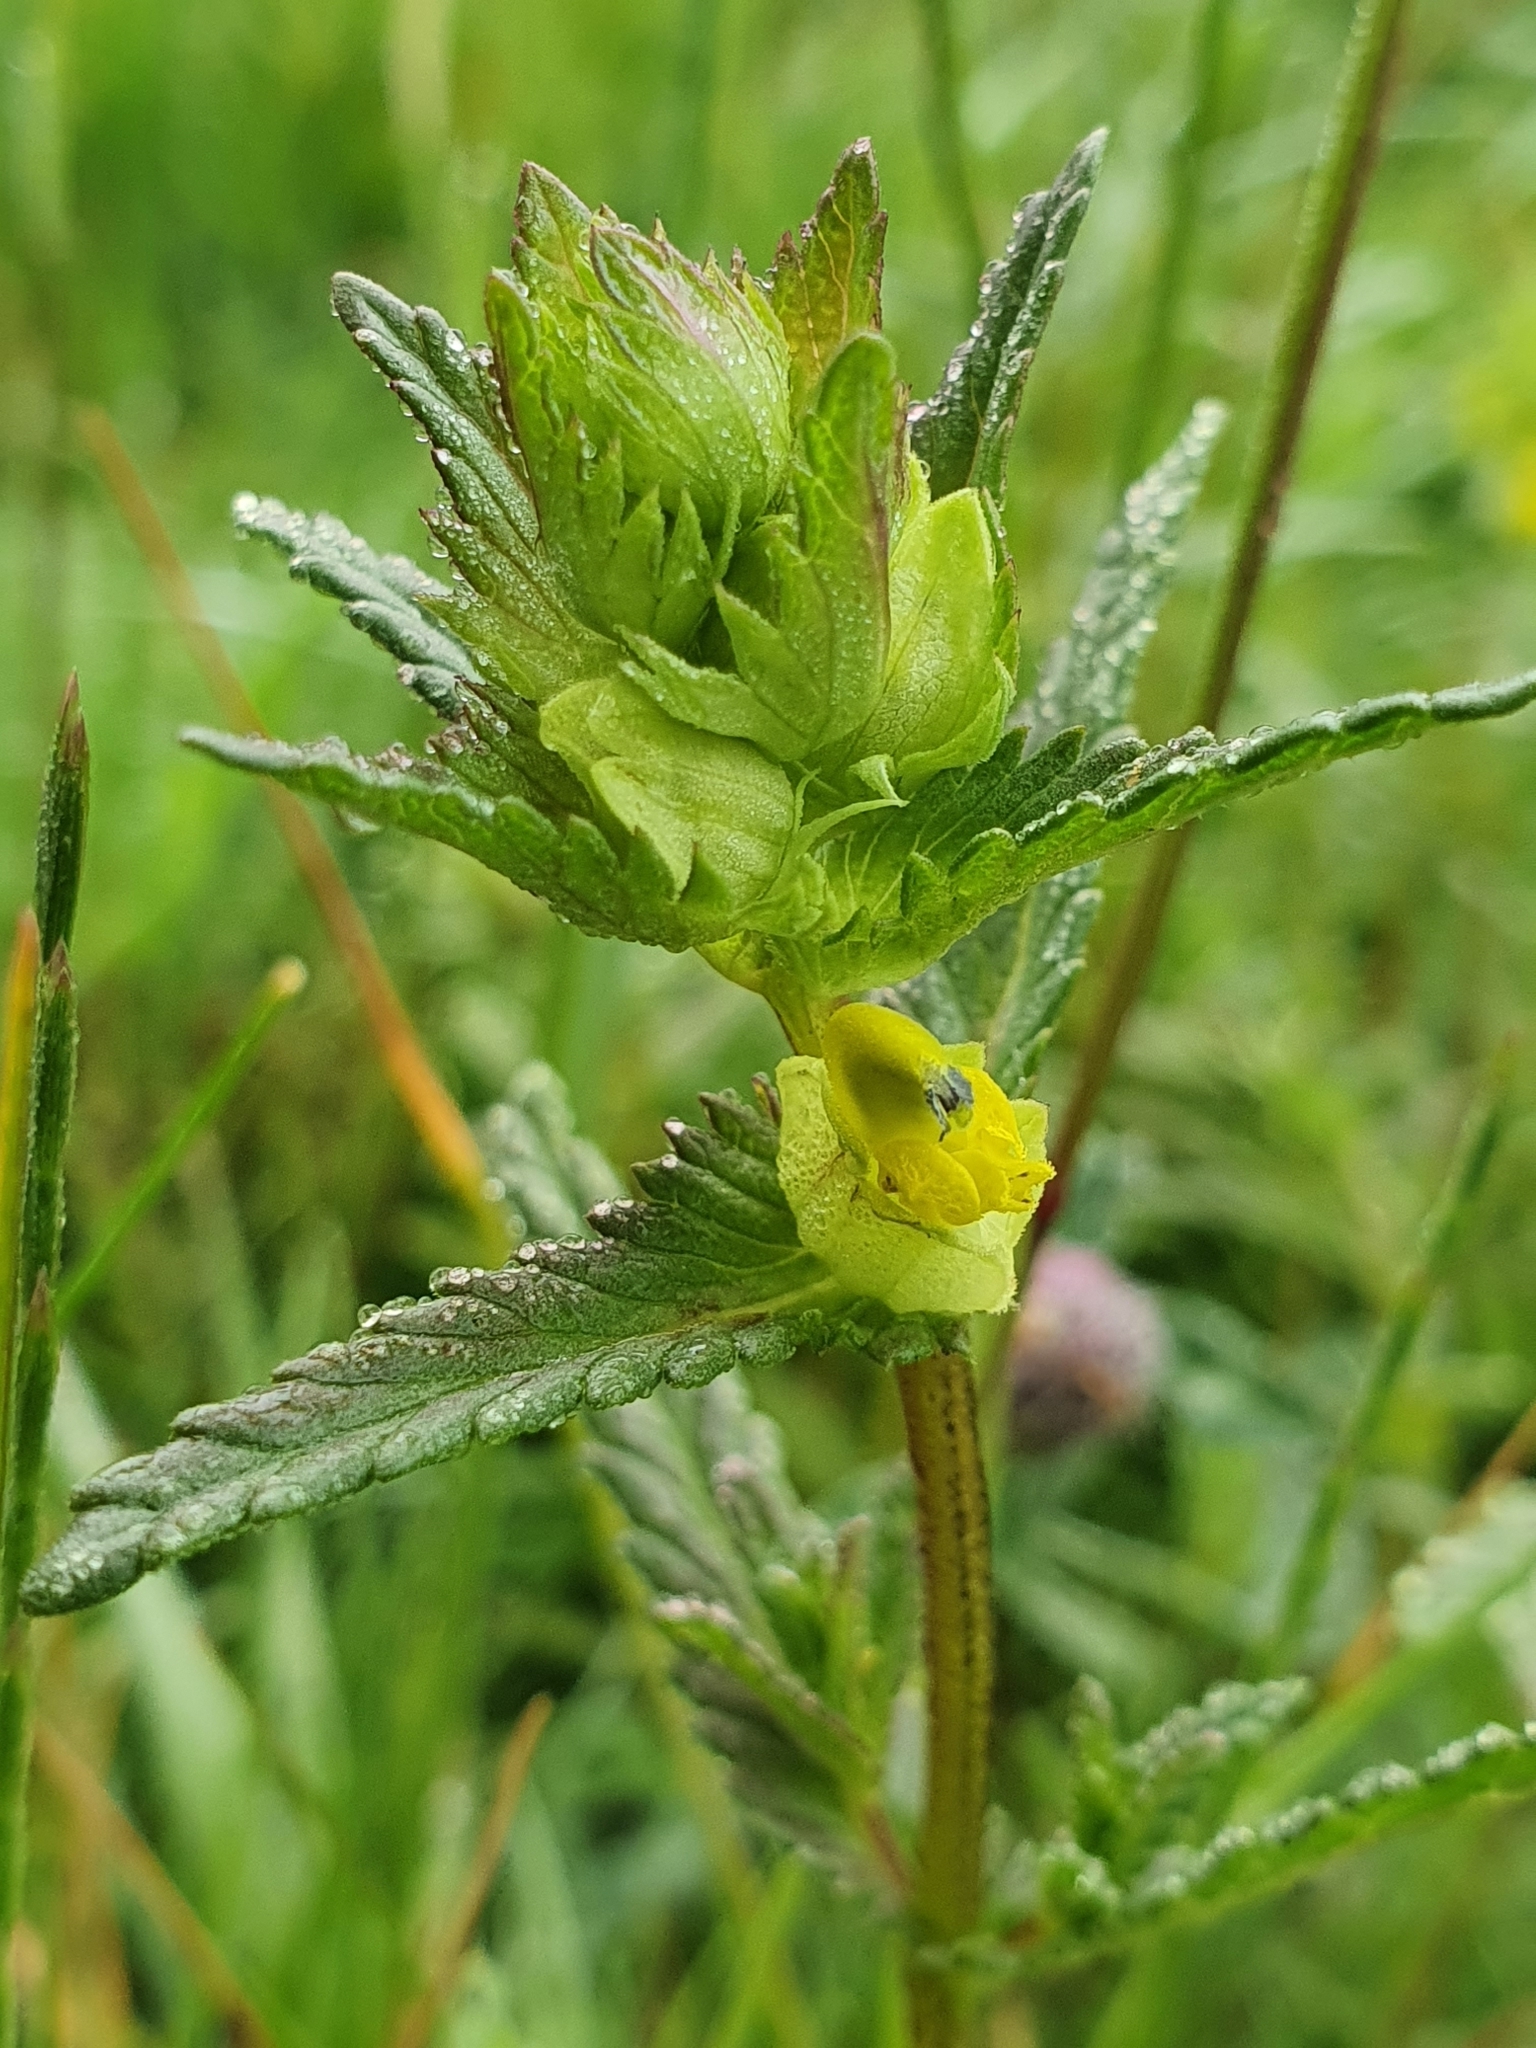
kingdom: Plantae
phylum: Tracheophyta
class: Magnoliopsida
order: Lamiales
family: Orobanchaceae
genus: Rhinanthus
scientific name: Rhinanthus minor
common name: Yellow-rattle
